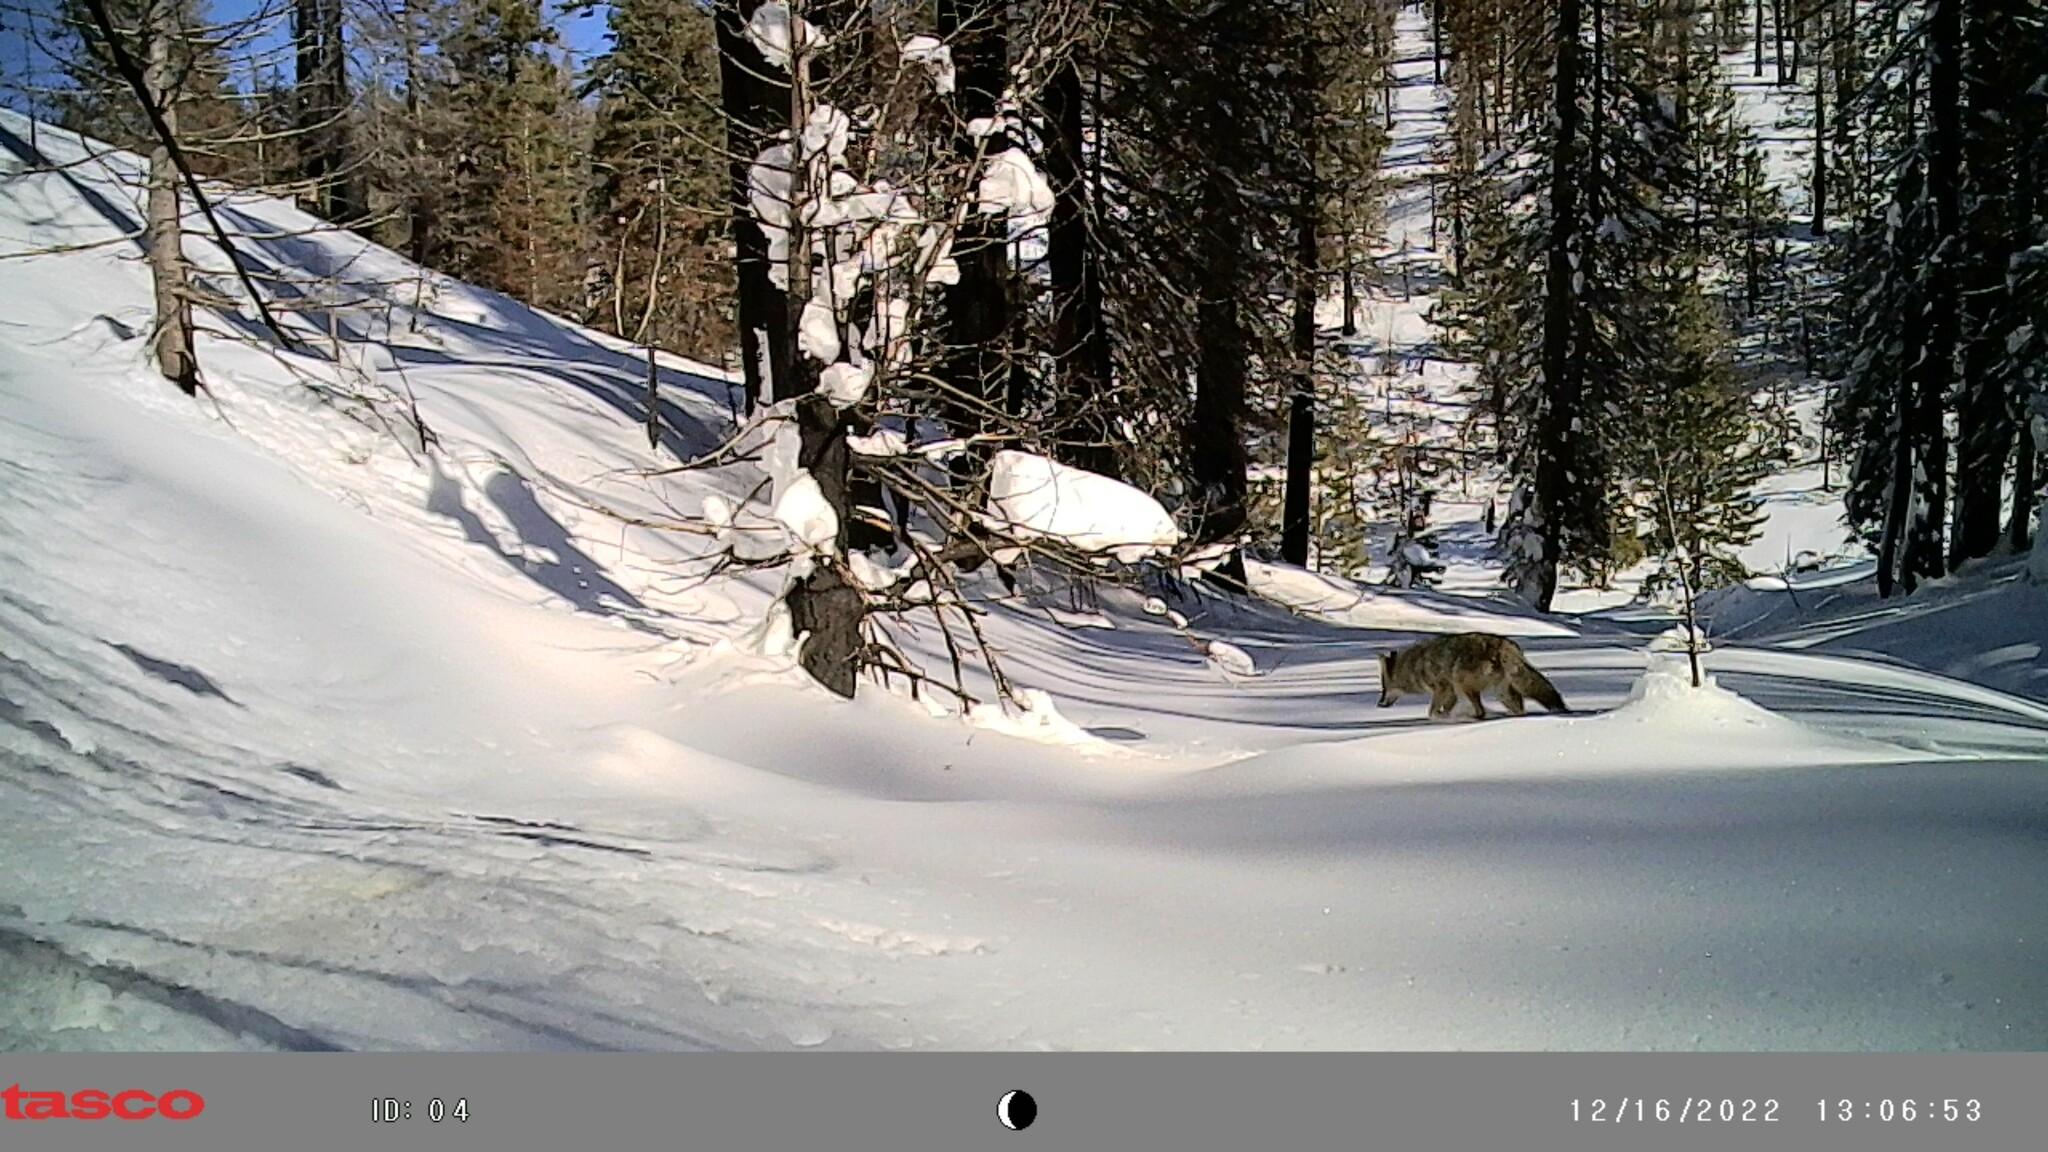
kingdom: Animalia
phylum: Chordata
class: Mammalia
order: Carnivora
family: Canidae
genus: Canis
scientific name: Canis latrans
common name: Coyote
